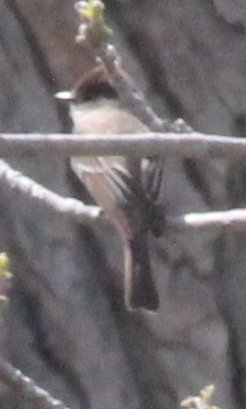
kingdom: Animalia
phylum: Chordata
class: Aves
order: Passeriformes
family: Tyrannidae
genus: Sayornis
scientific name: Sayornis phoebe
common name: Eastern phoebe
